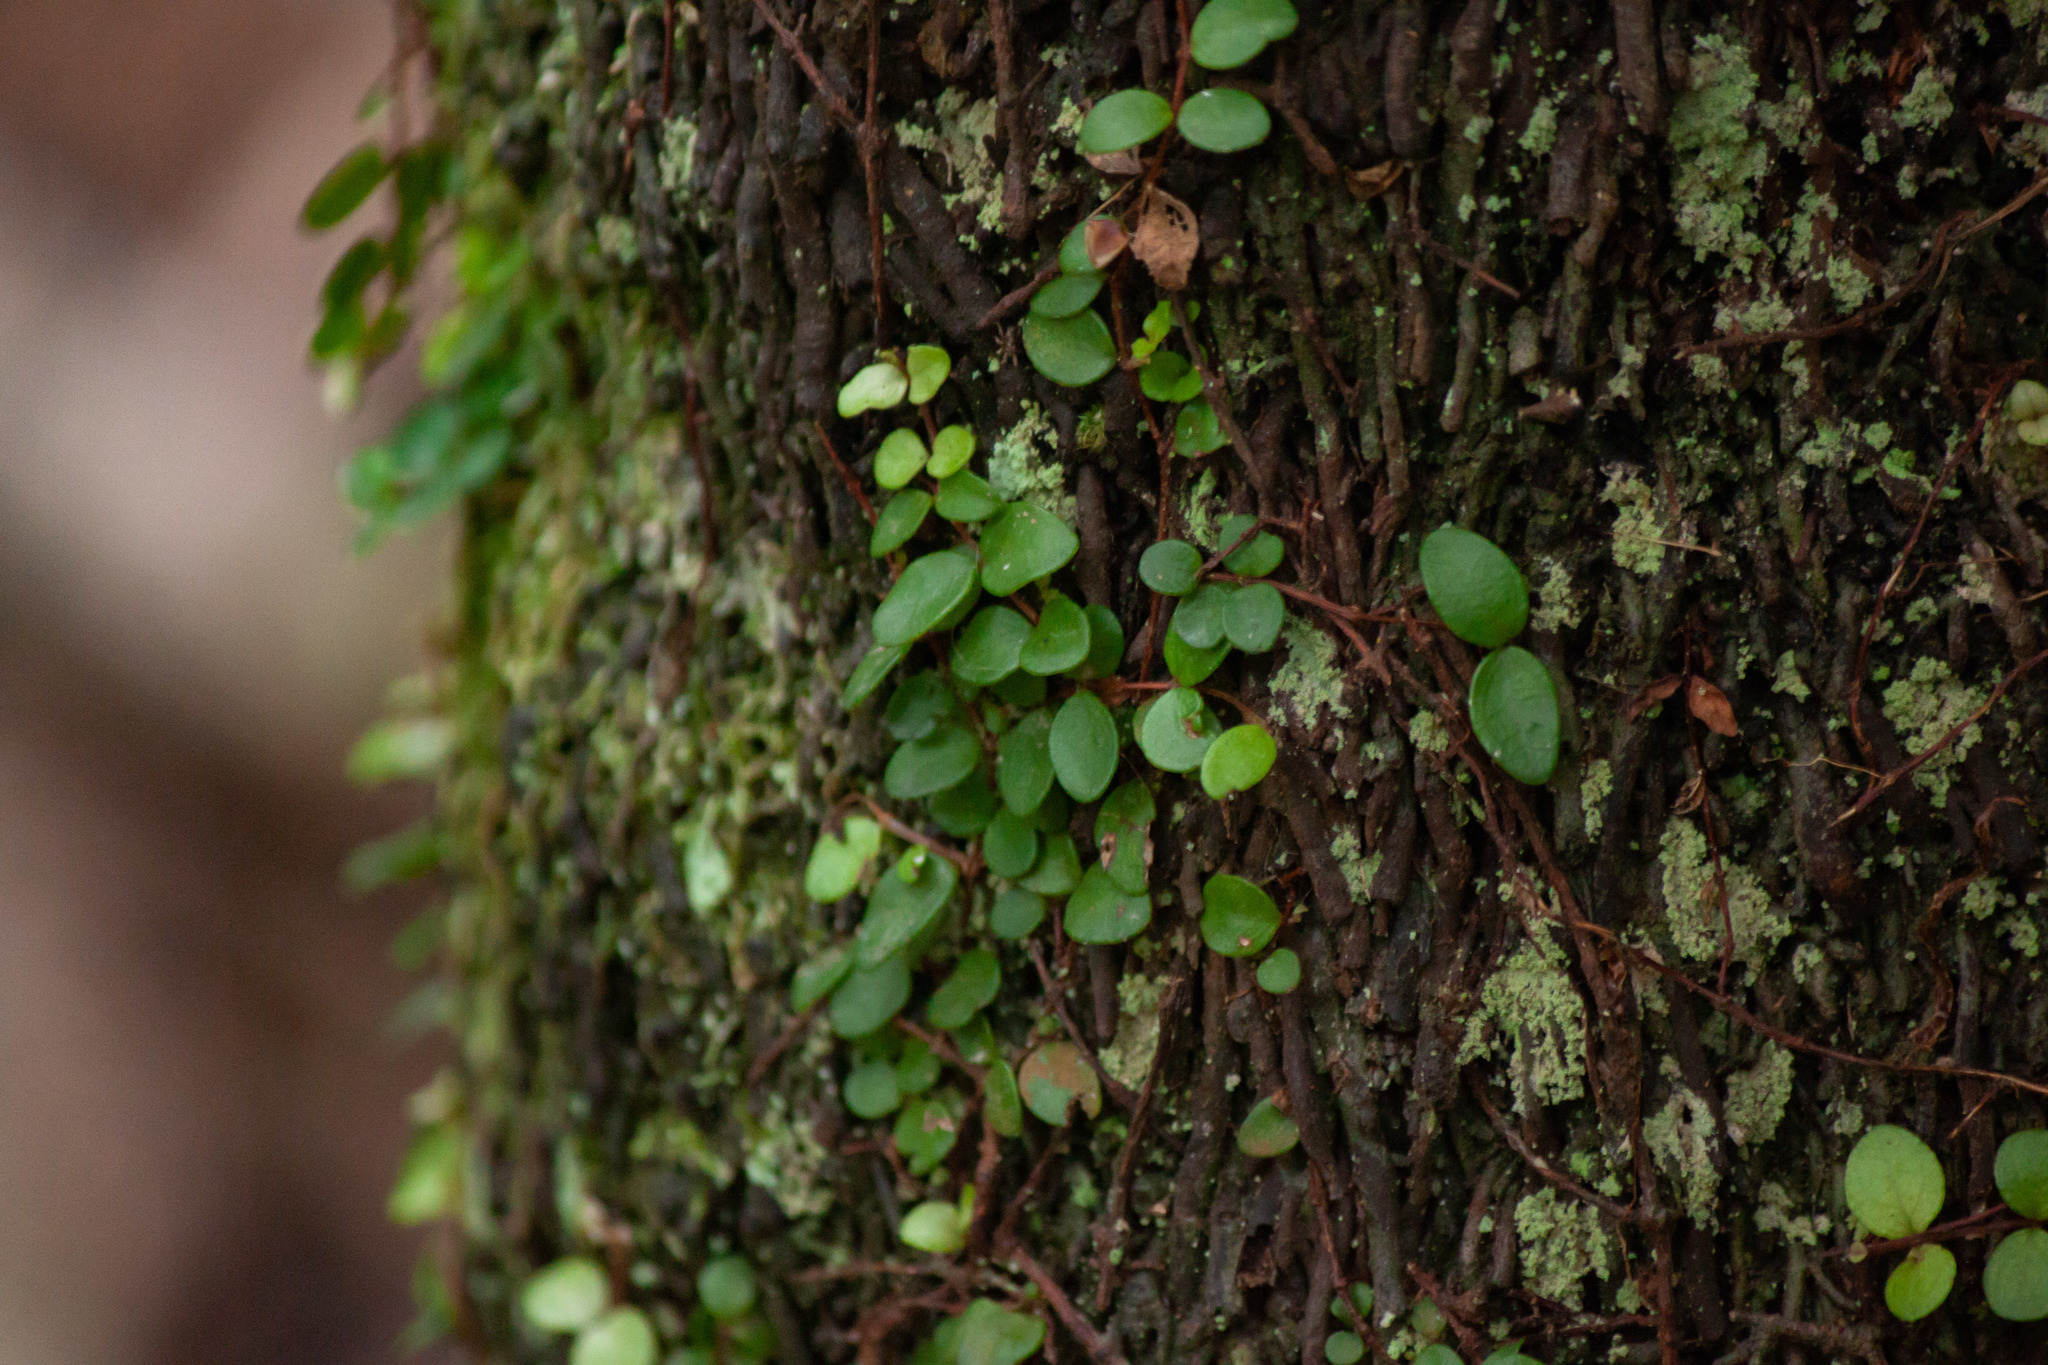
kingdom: Plantae
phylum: Tracheophyta
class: Magnoliopsida
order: Myrtales
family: Myrtaceae
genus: Metrosideros
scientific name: Metrosideros fulgens
